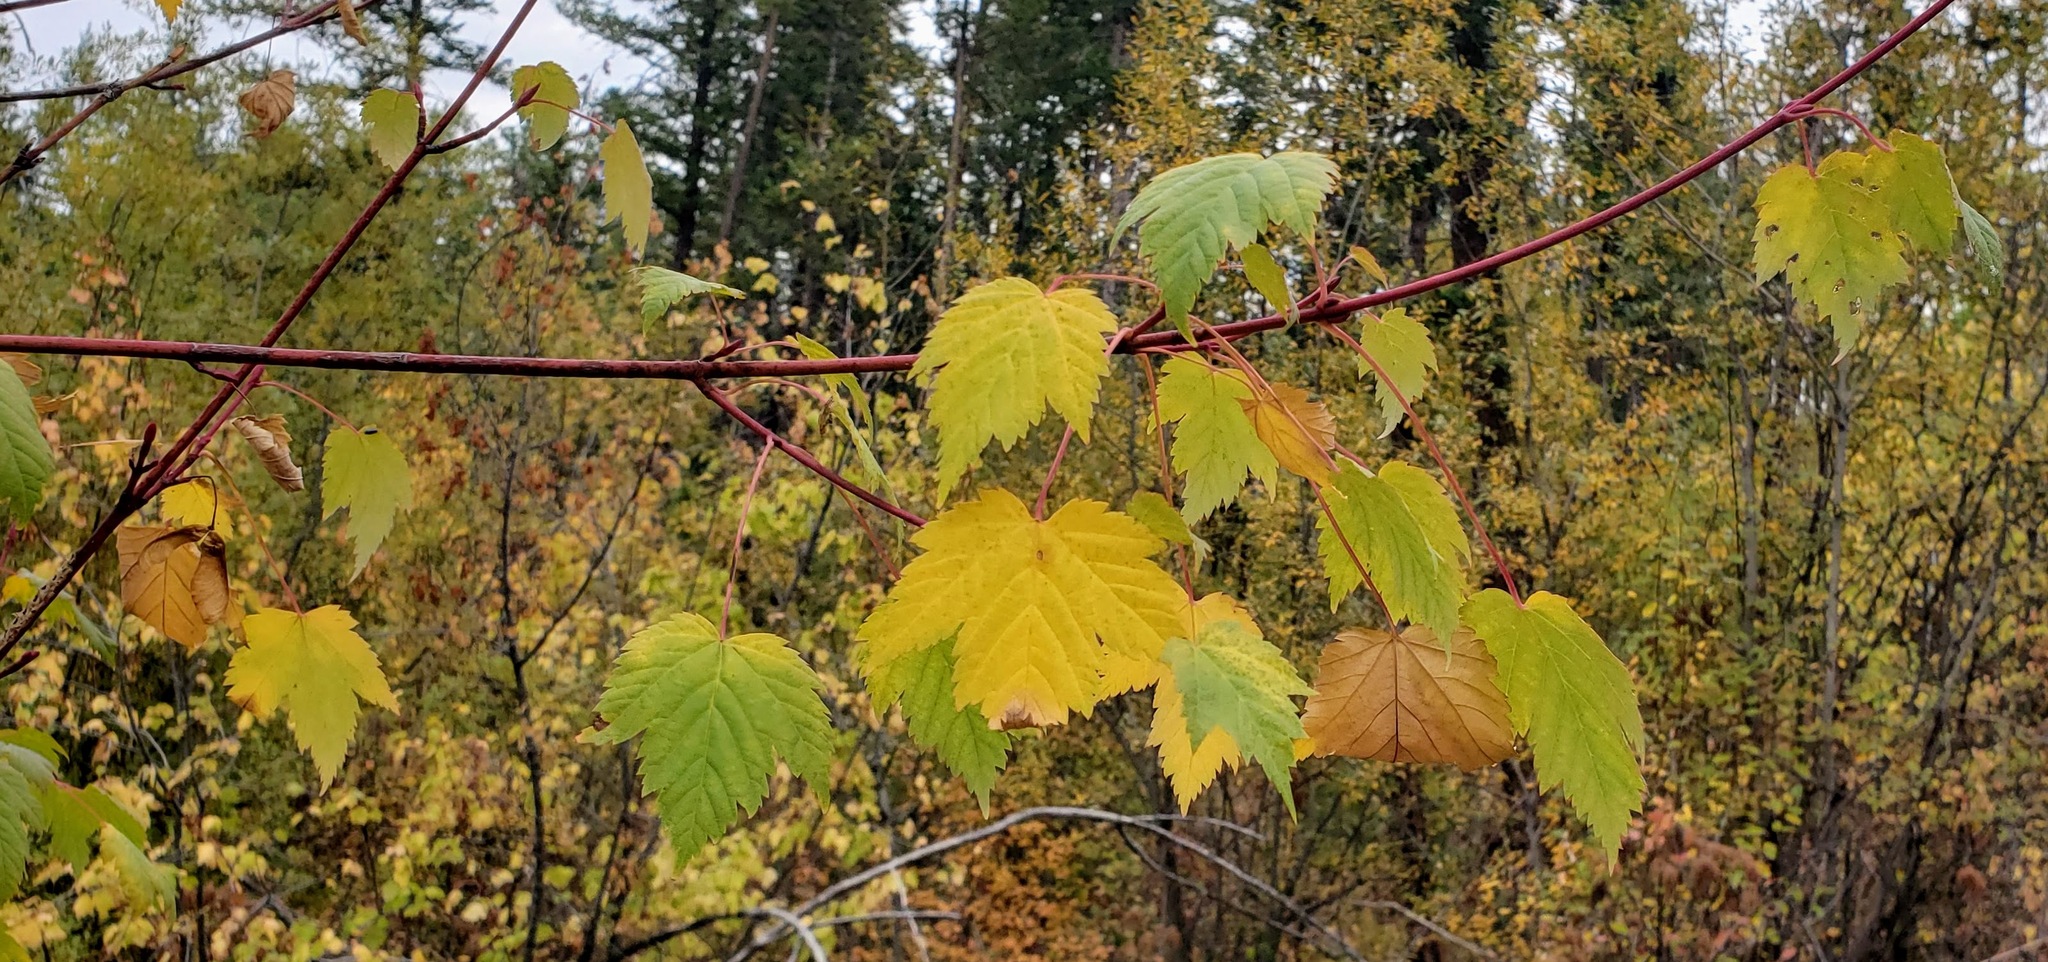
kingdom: Plantae
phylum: Tracheophyta
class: Magnoliopsida
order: Sapindales
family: Sapindaceae
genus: Acer
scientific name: Acer glabrum
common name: Rocky mountain maple
